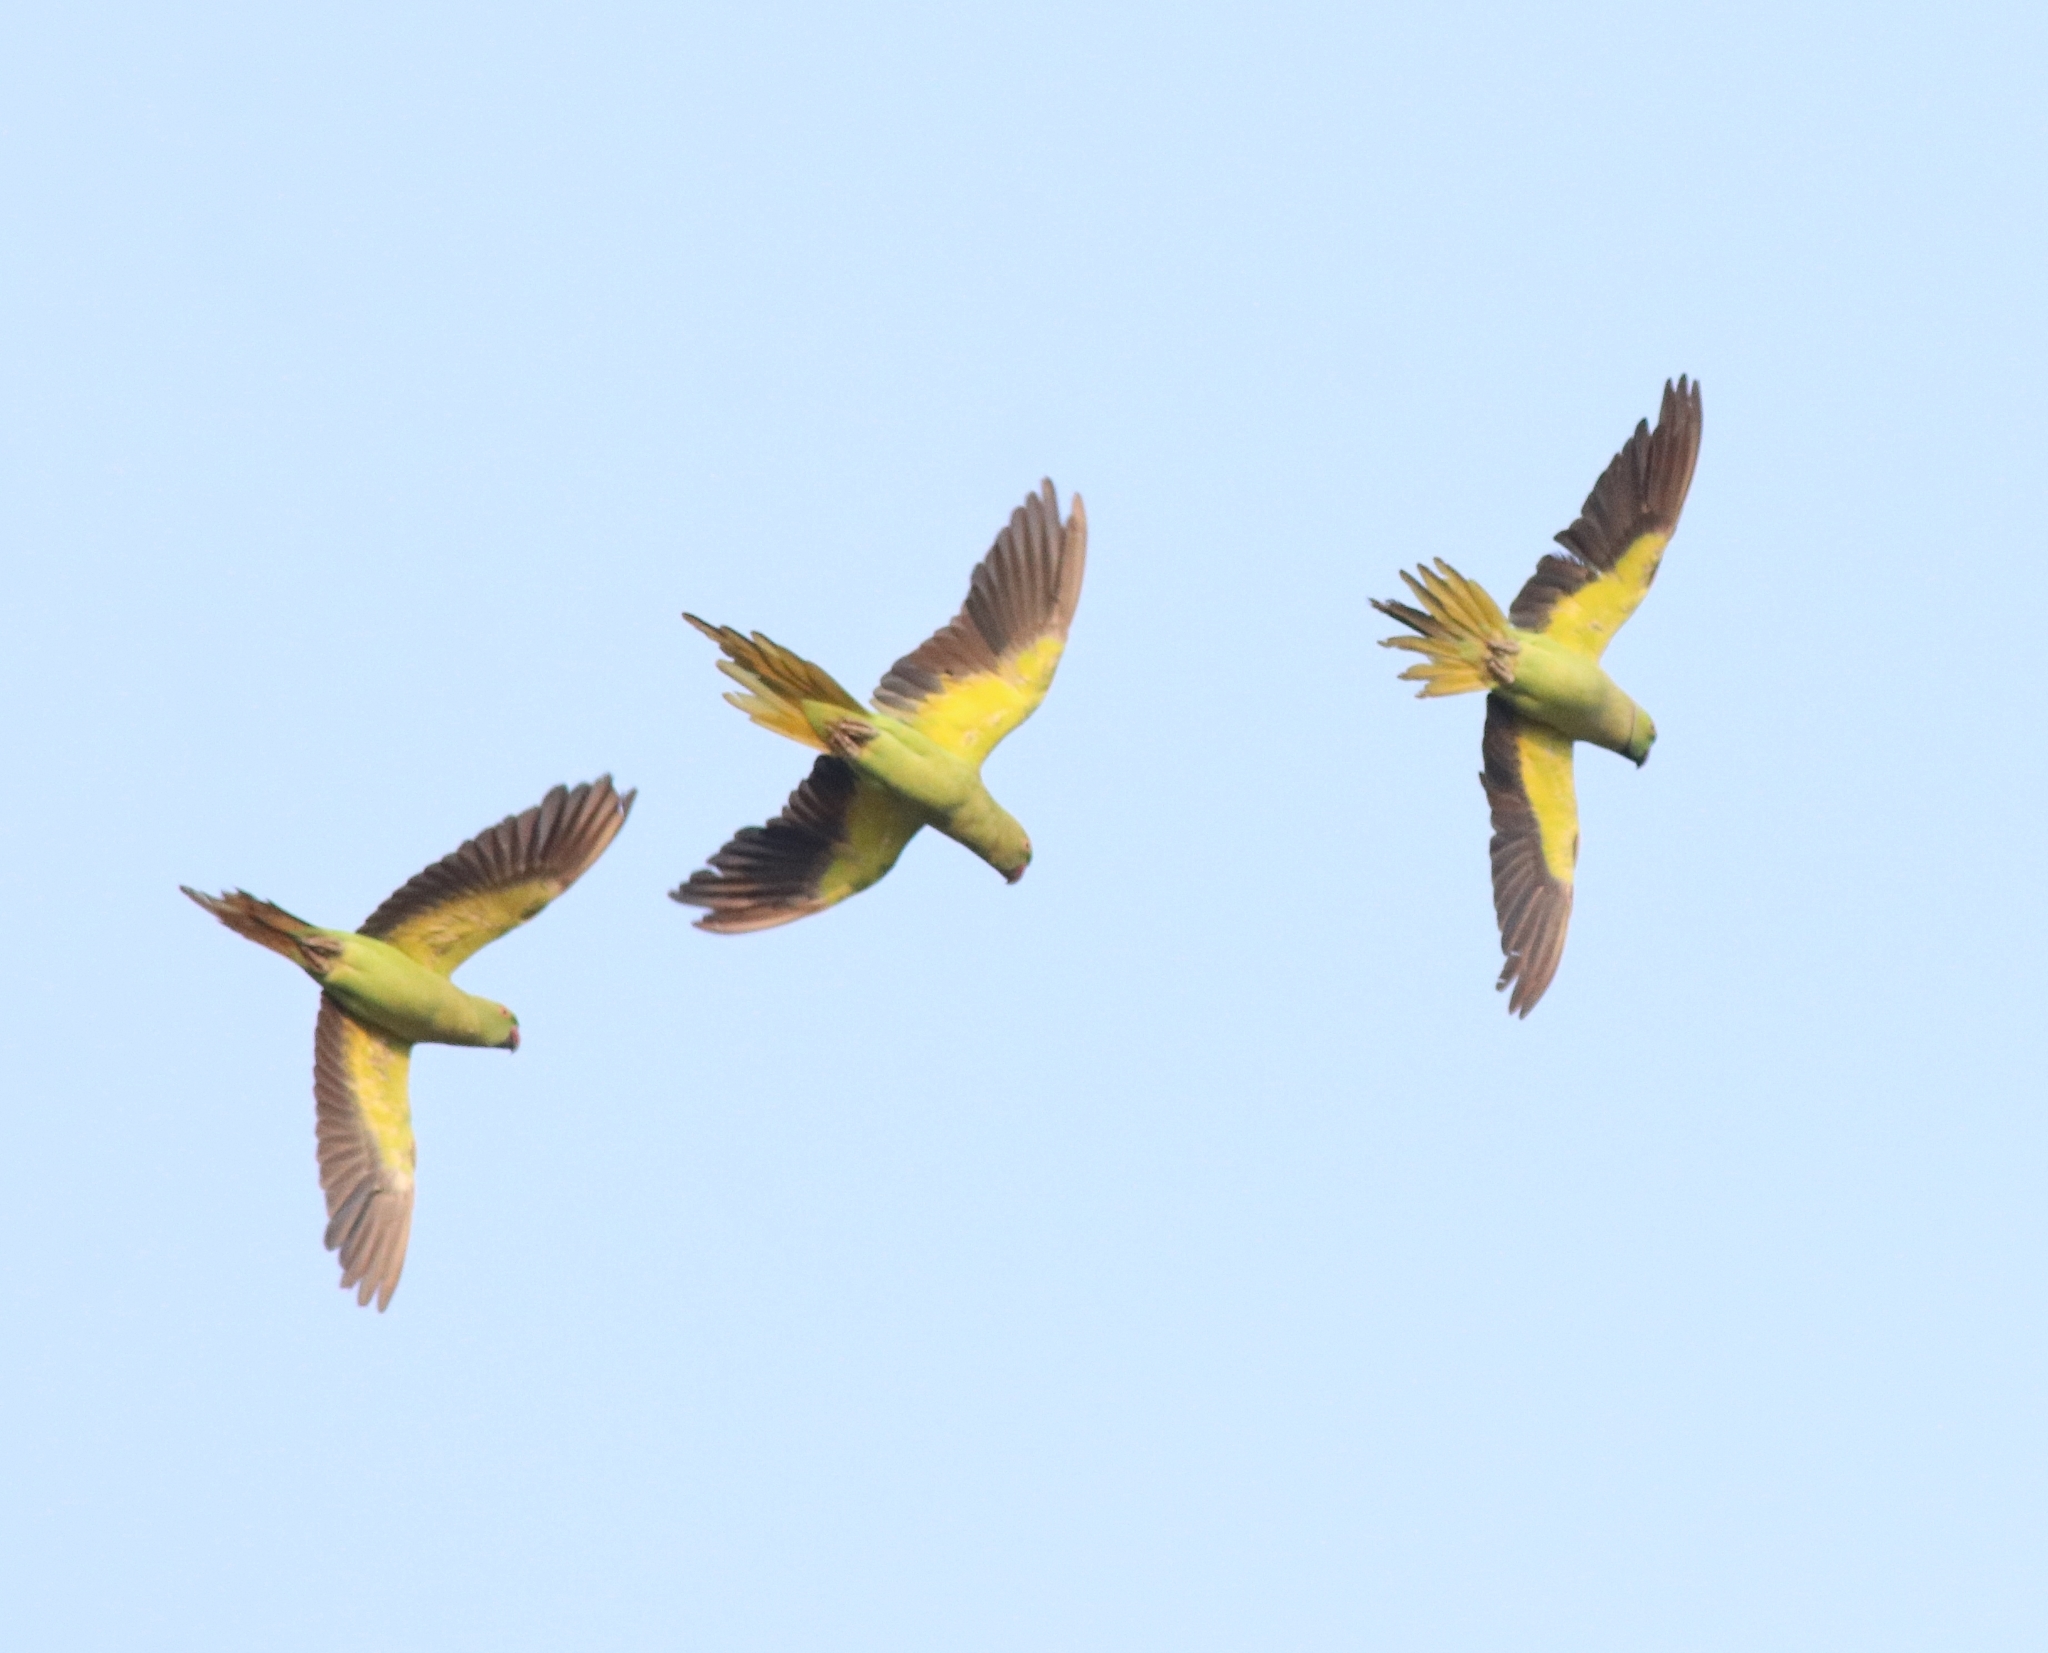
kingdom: Animalia
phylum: Chordata
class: Aves
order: Psittaciformes
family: Psittacidae
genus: Psittacula
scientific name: Psittacula krameri
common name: Rose-ringed parakeet
